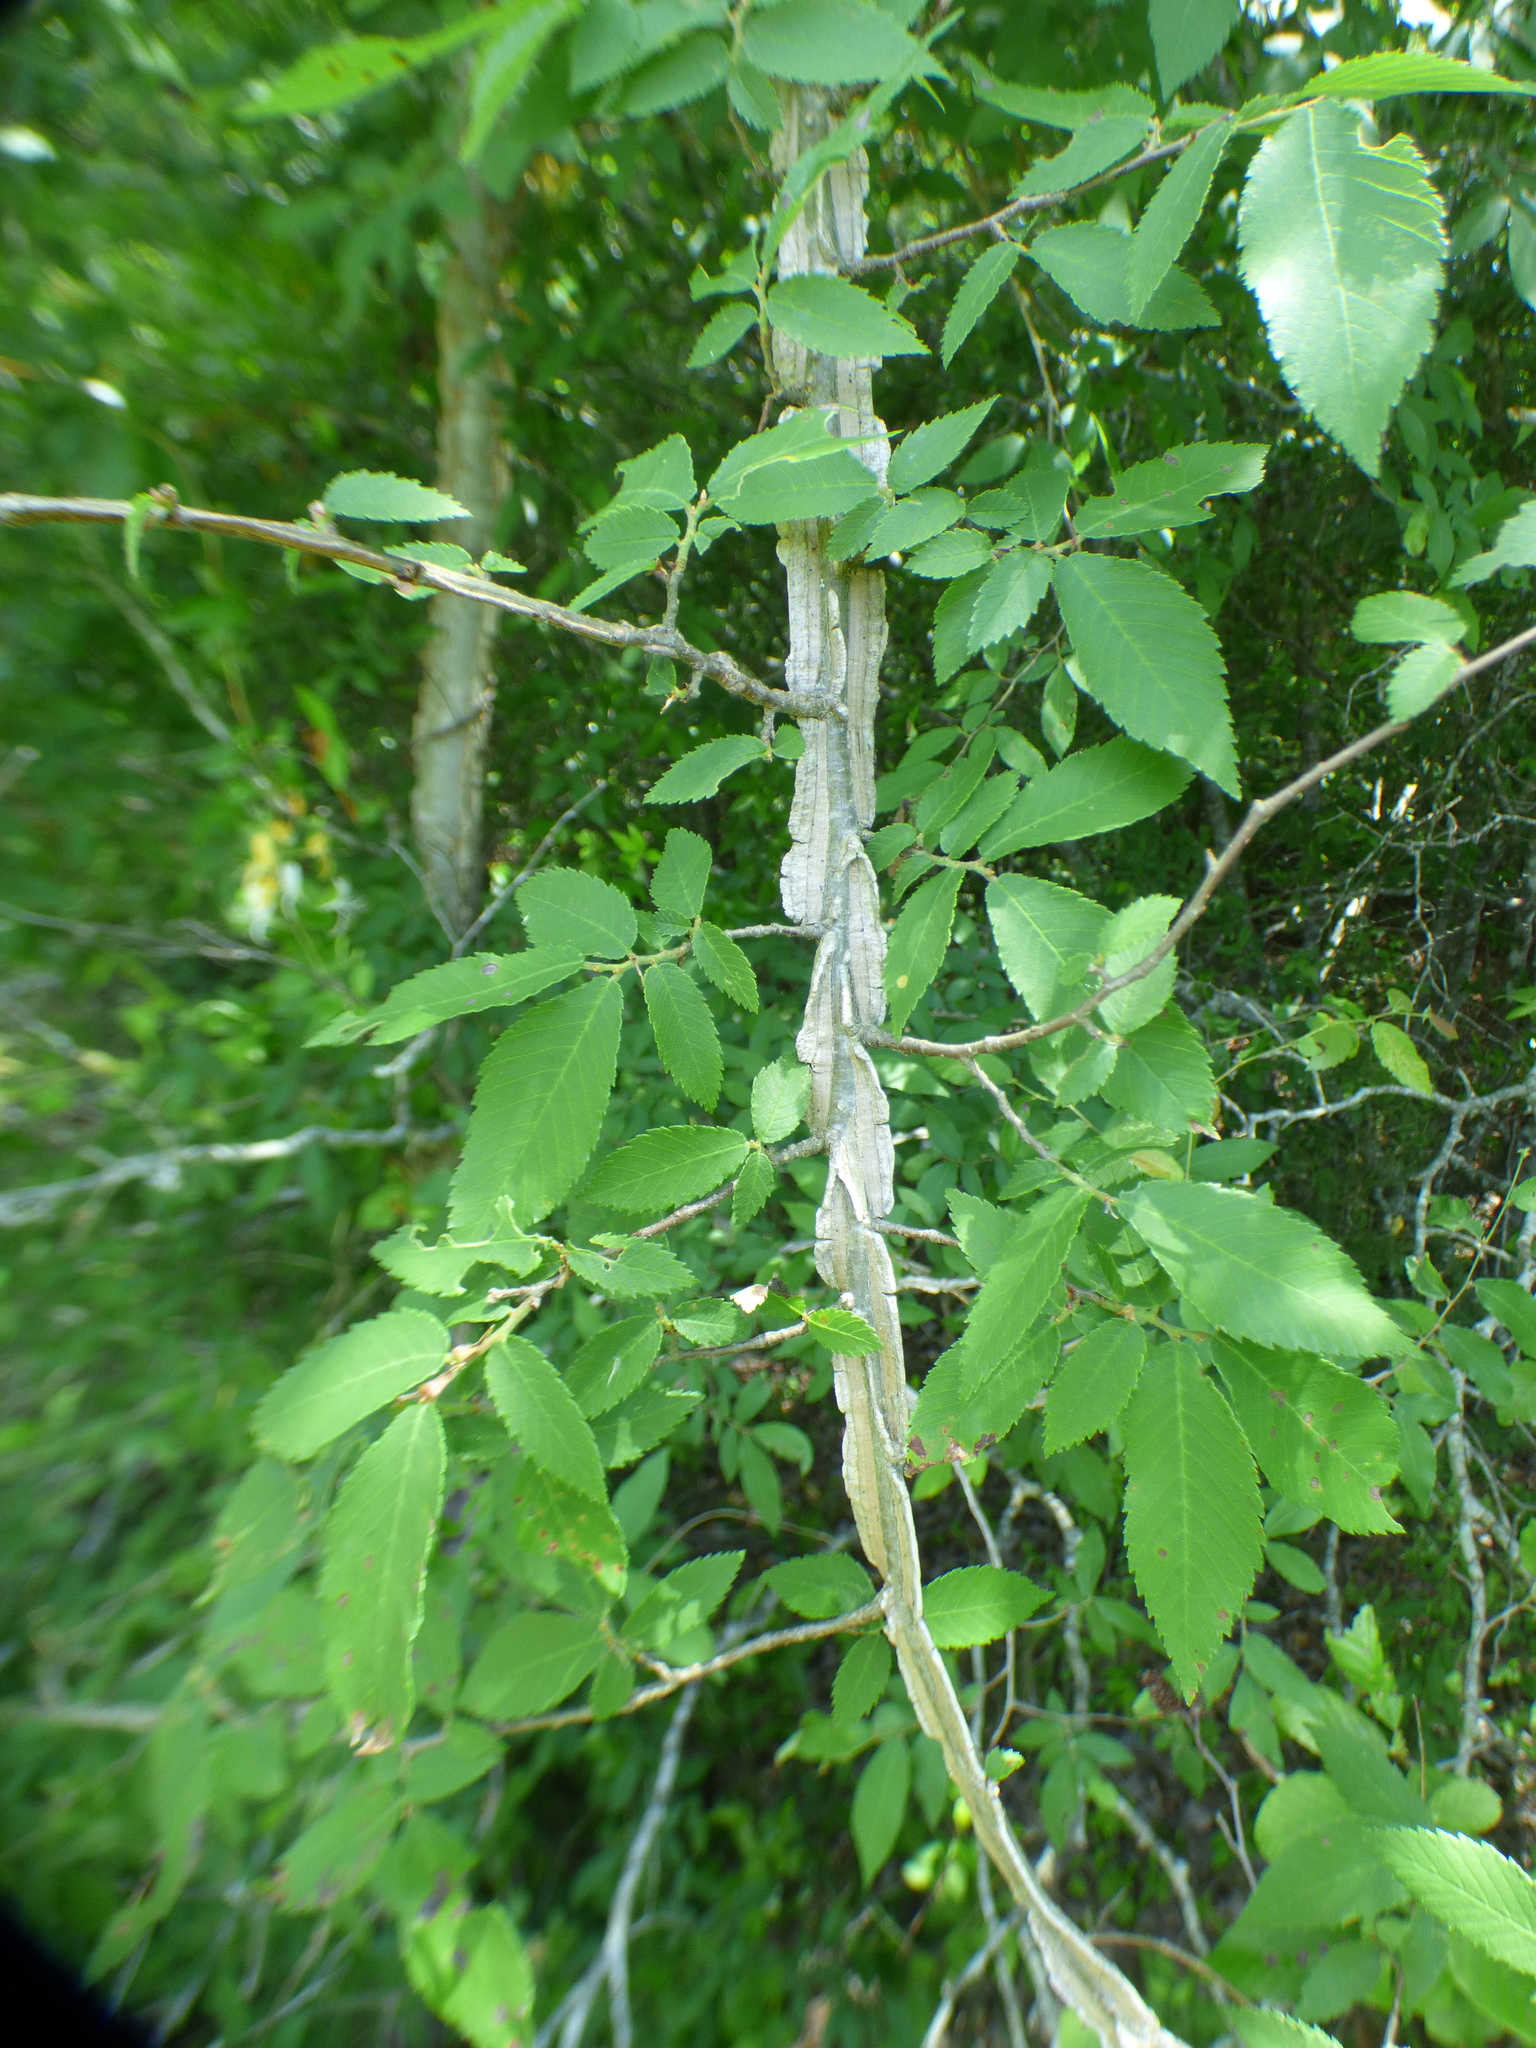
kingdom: Plantae
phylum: Tracheophyta
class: Magnoliopsida
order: Rosales
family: Ulmaceae
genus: Ulmus
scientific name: Ulmus alata
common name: Winged elm
